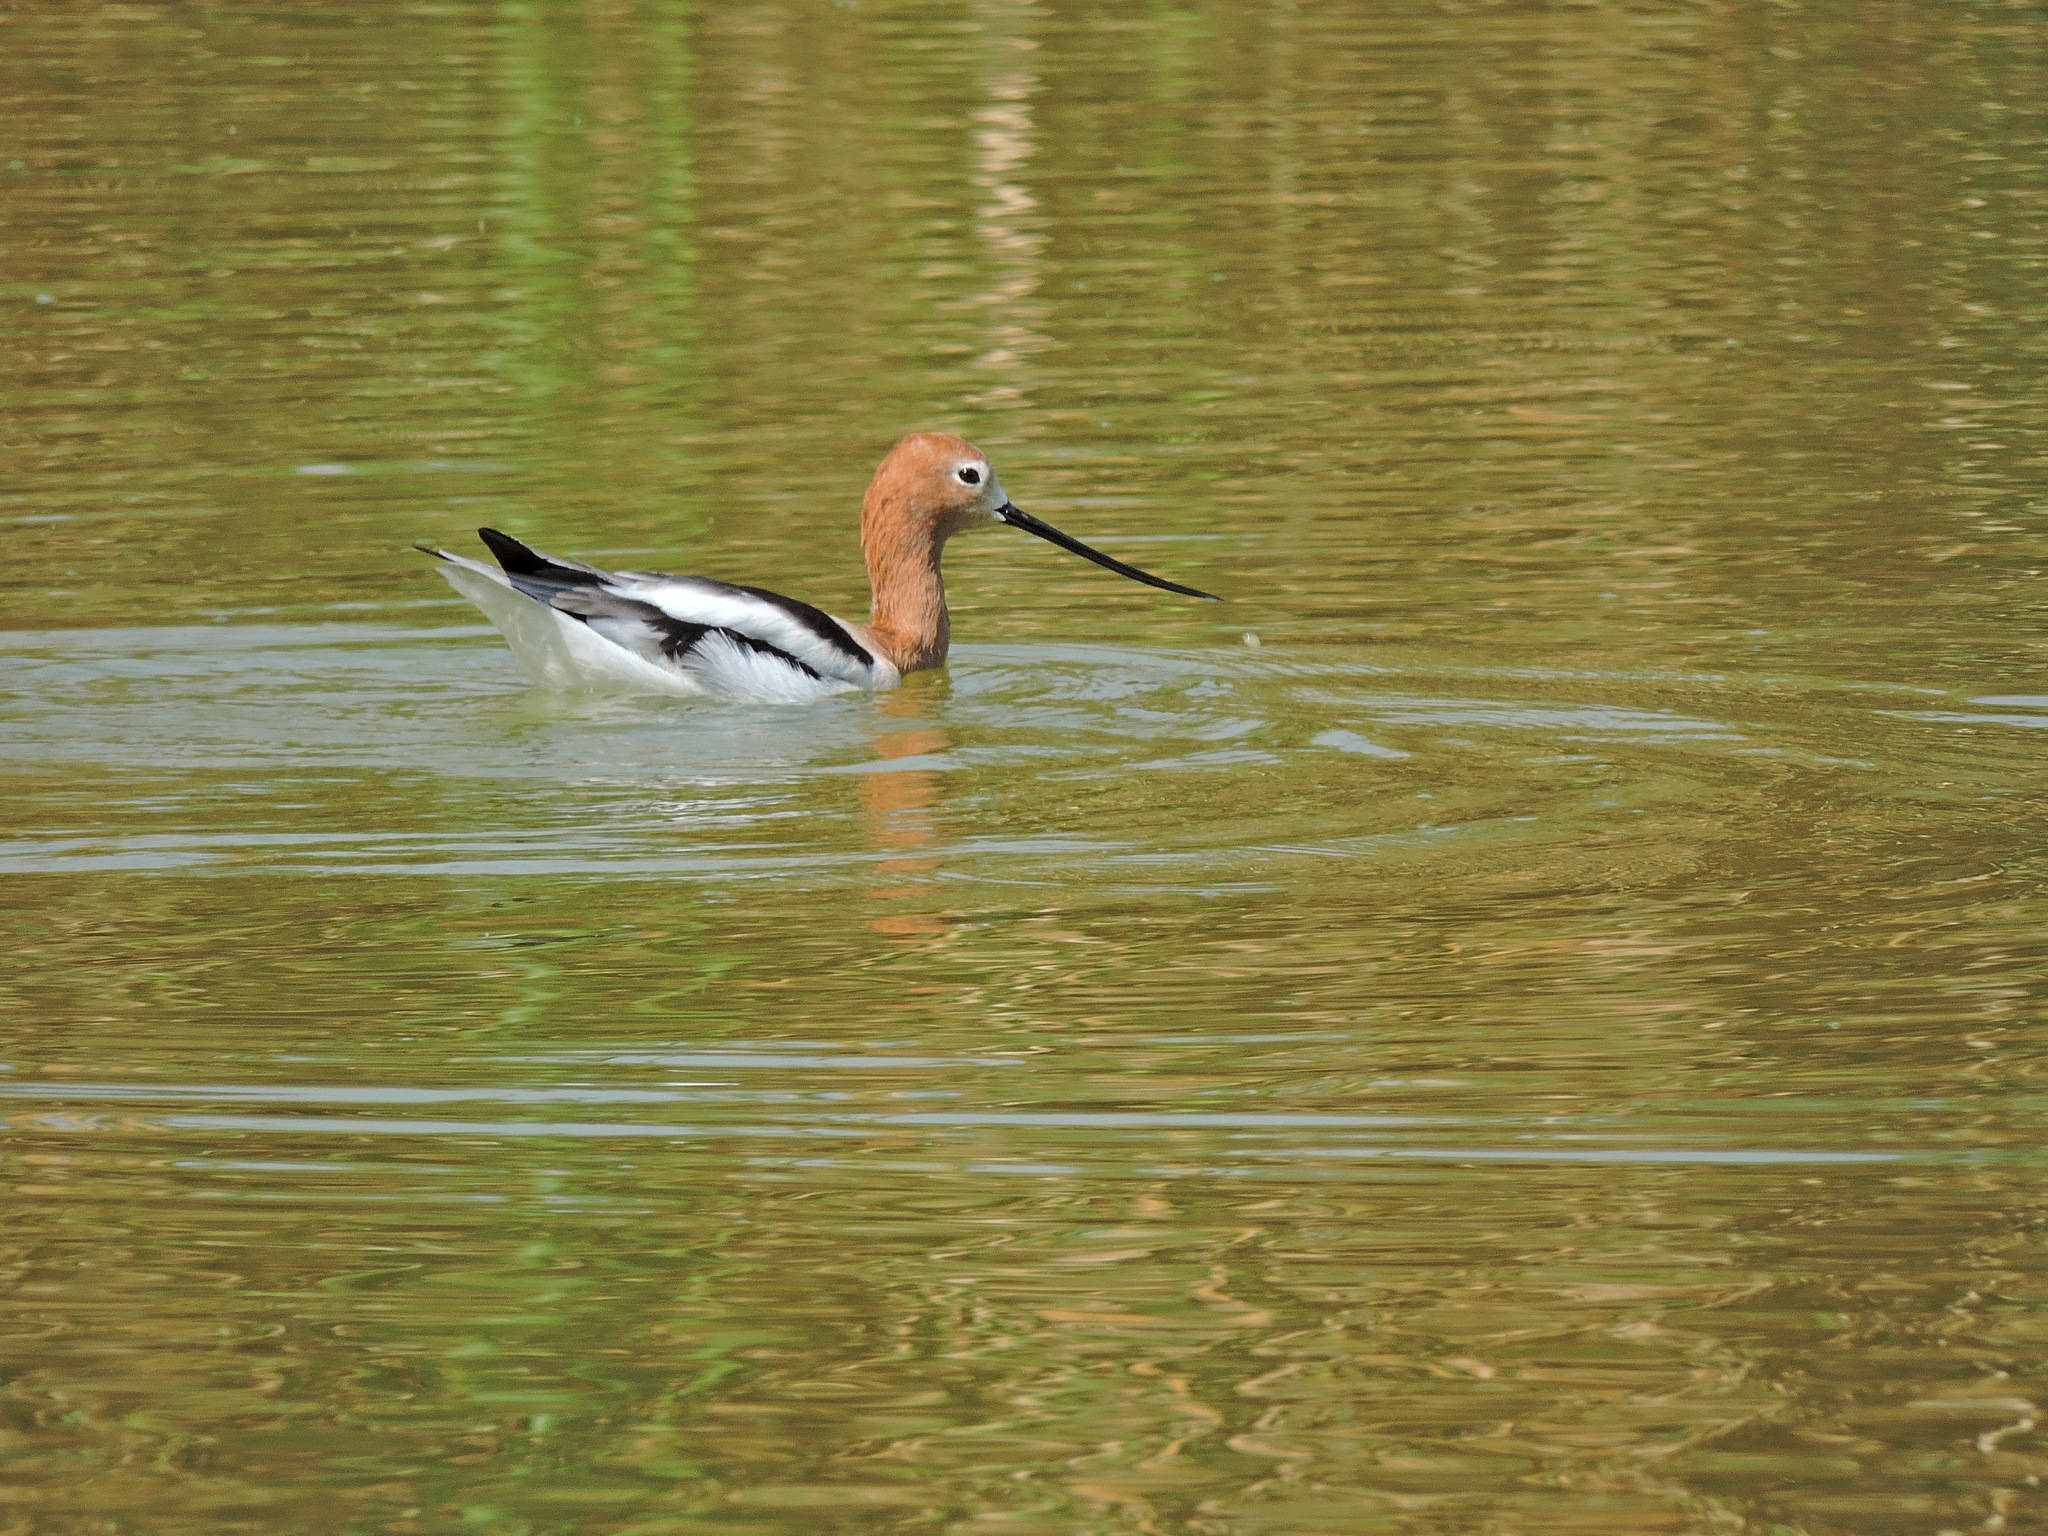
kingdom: Animalia
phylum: Chordata
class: Aves
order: Charadriiformes
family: Recurvirostridae
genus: Recurvirostra
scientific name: Recurvirostra americana
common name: American avocet
